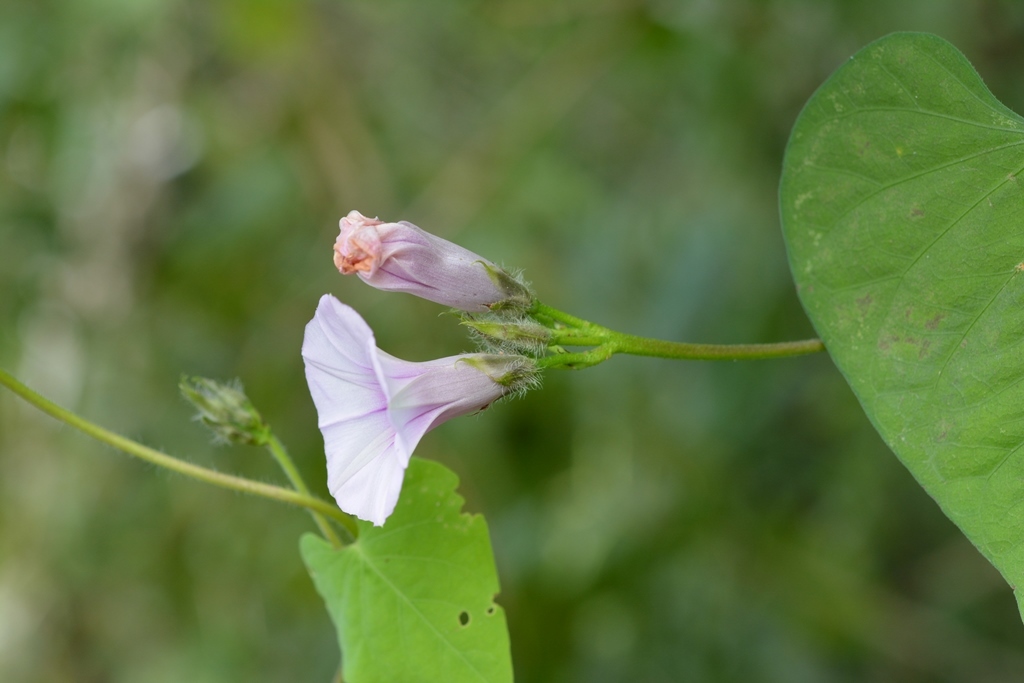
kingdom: Plantae
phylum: Tracheophyta
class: Magnoliopsida
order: Solanales
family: Convolvulaceae
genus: Ipomoea
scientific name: Ipomoea batatas
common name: Sweet-potato
